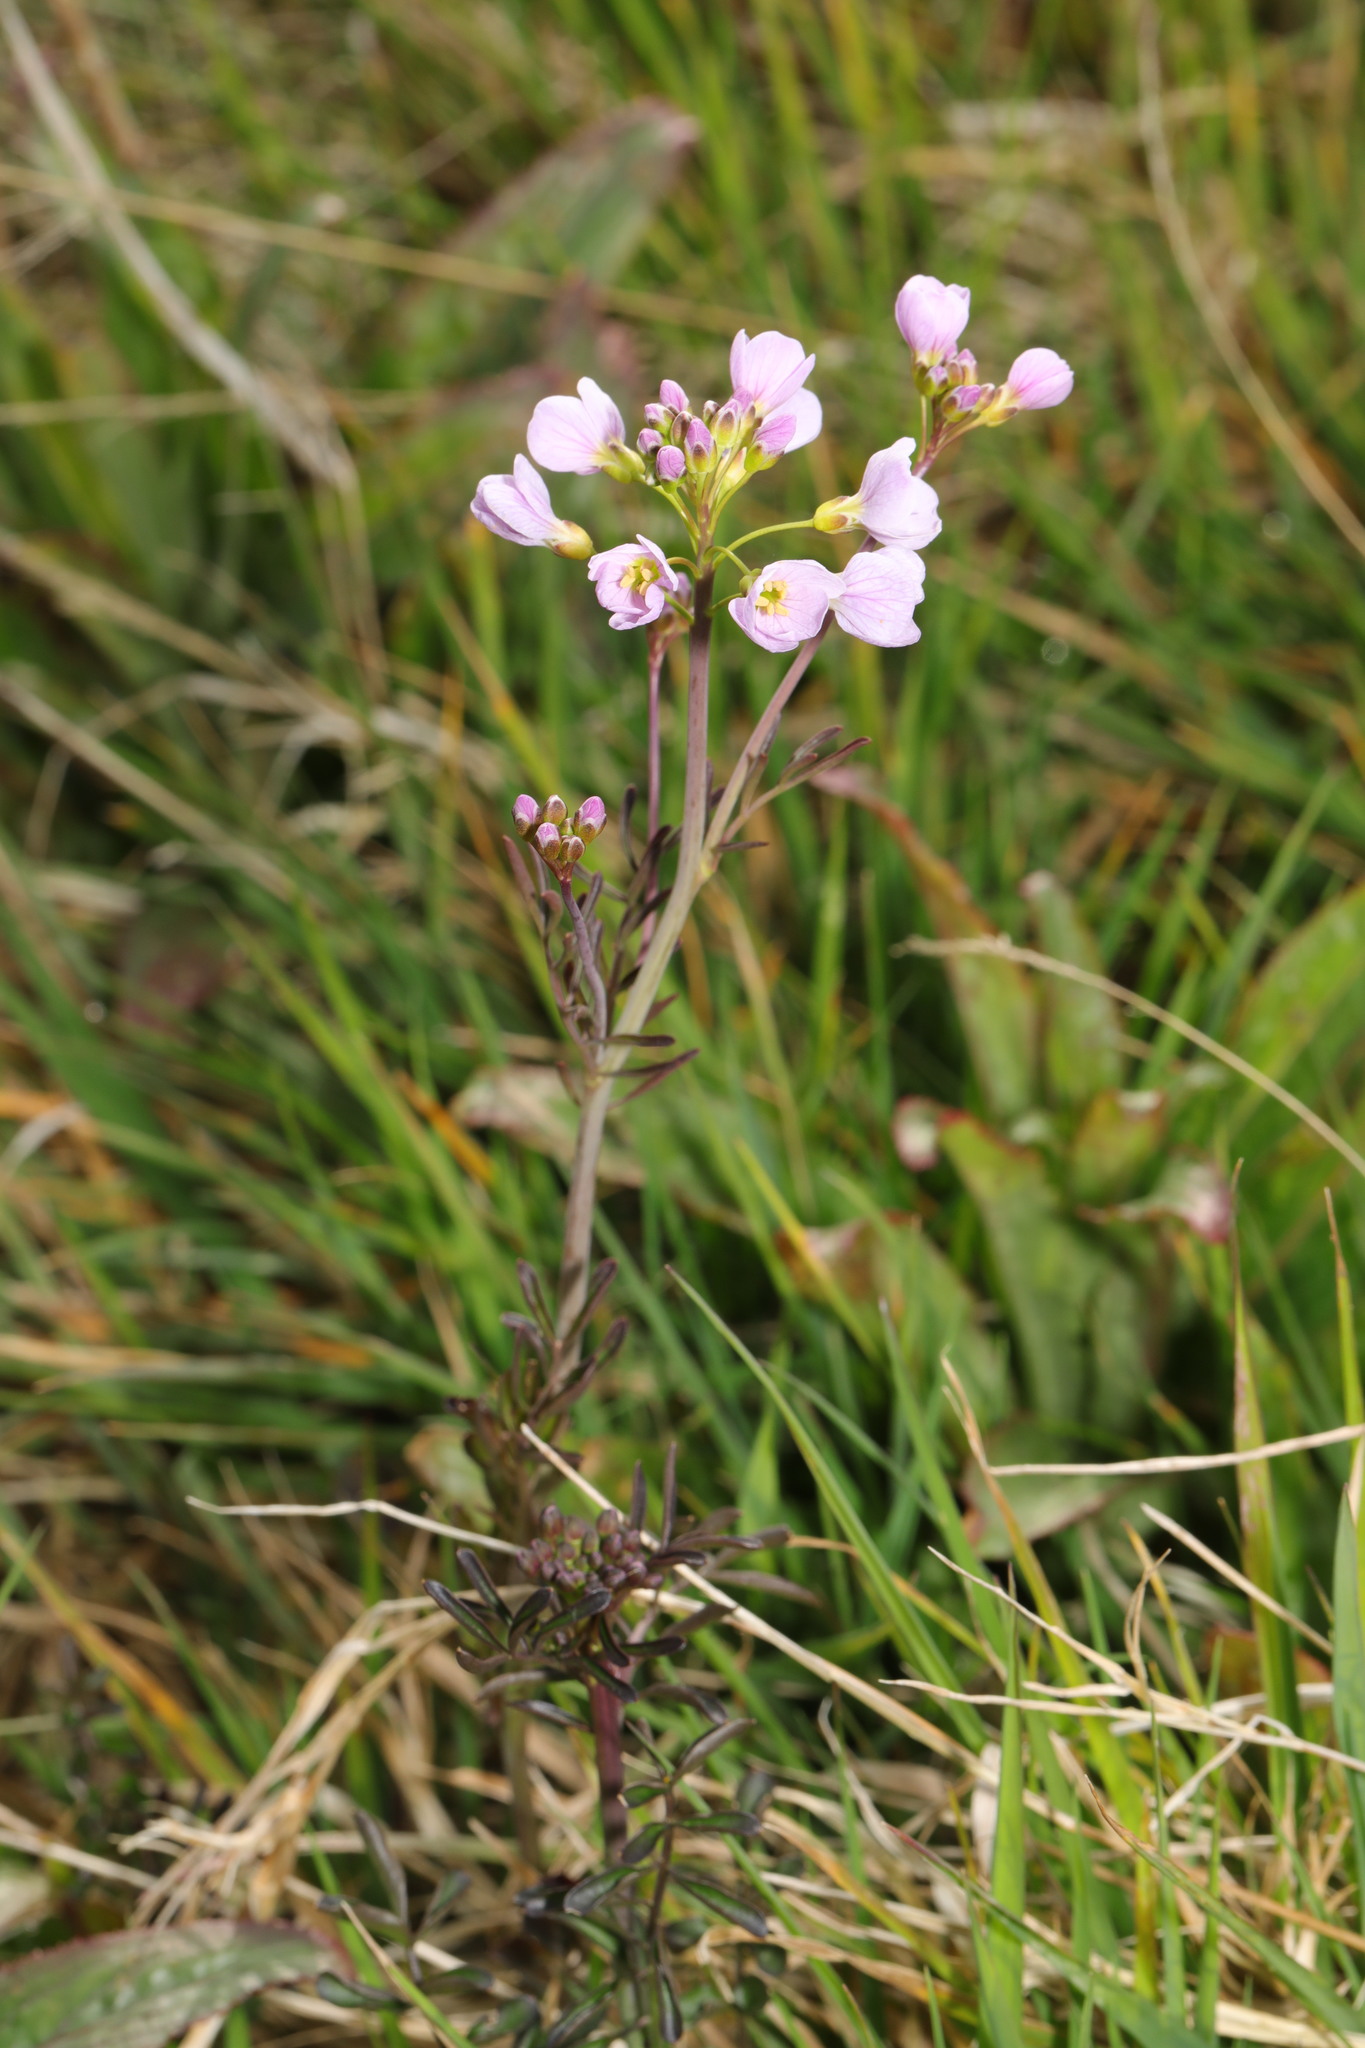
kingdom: Plantae
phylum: Tracheophyta
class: Magnoliopsida
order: Brassicales
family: Brassicaceae
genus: Cardamine
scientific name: Cardamine pratensis
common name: Cuckoo flower
